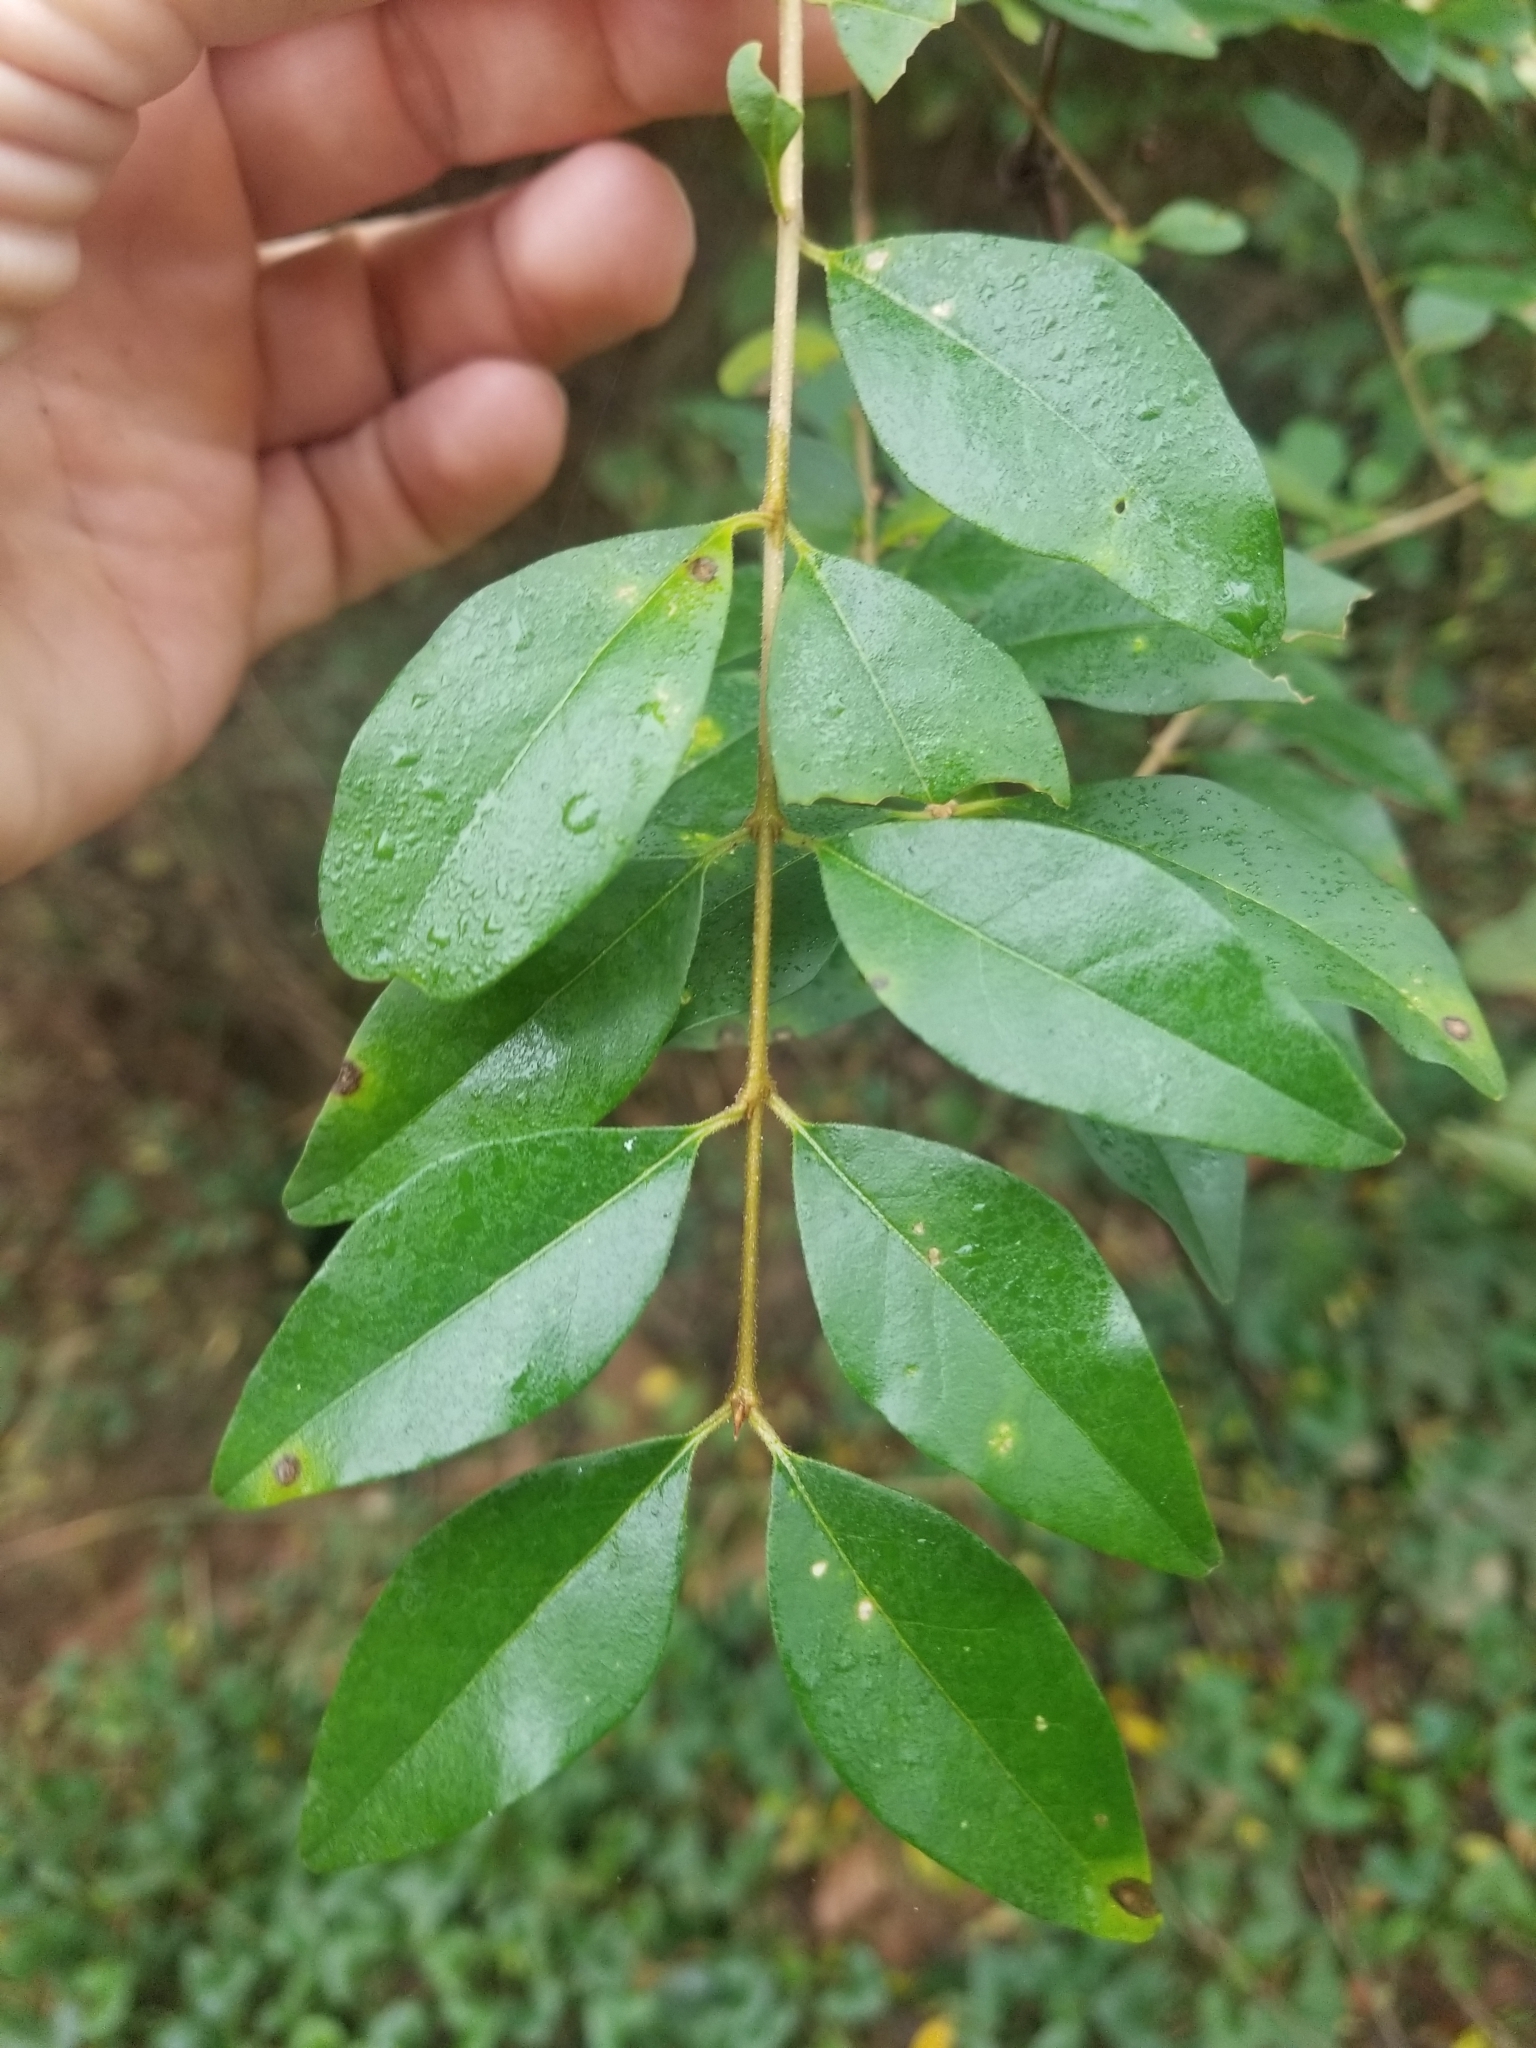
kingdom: Plantae
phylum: Tracheophyta
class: Magnoliopsida
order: Lamiales
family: Oleaceae
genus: Ligustrum
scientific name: Ligustrum sinense
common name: Chinese privet
